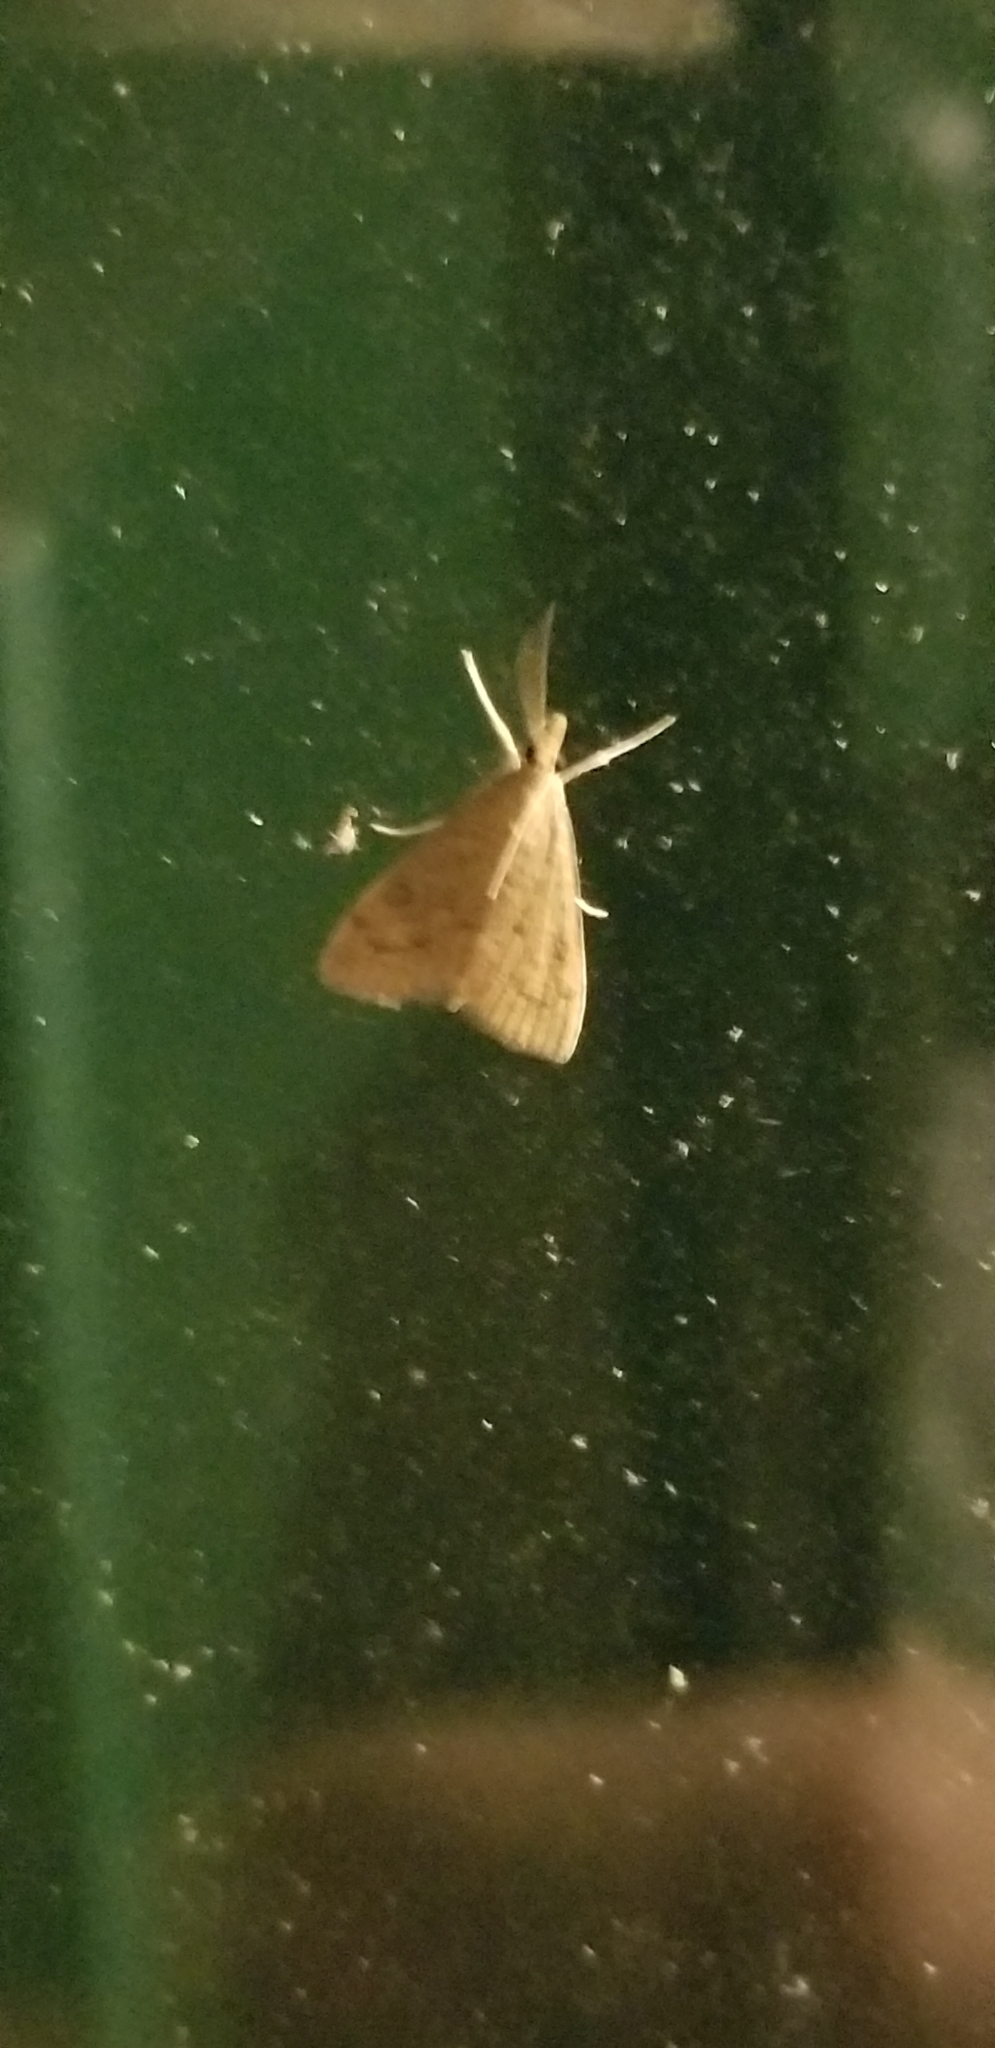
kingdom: Animalia
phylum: Arthropoda
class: Insecta
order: Lepidoptera
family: Crambidae
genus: Udea
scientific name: Udea rubigalis
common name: Celery leaftier moth
